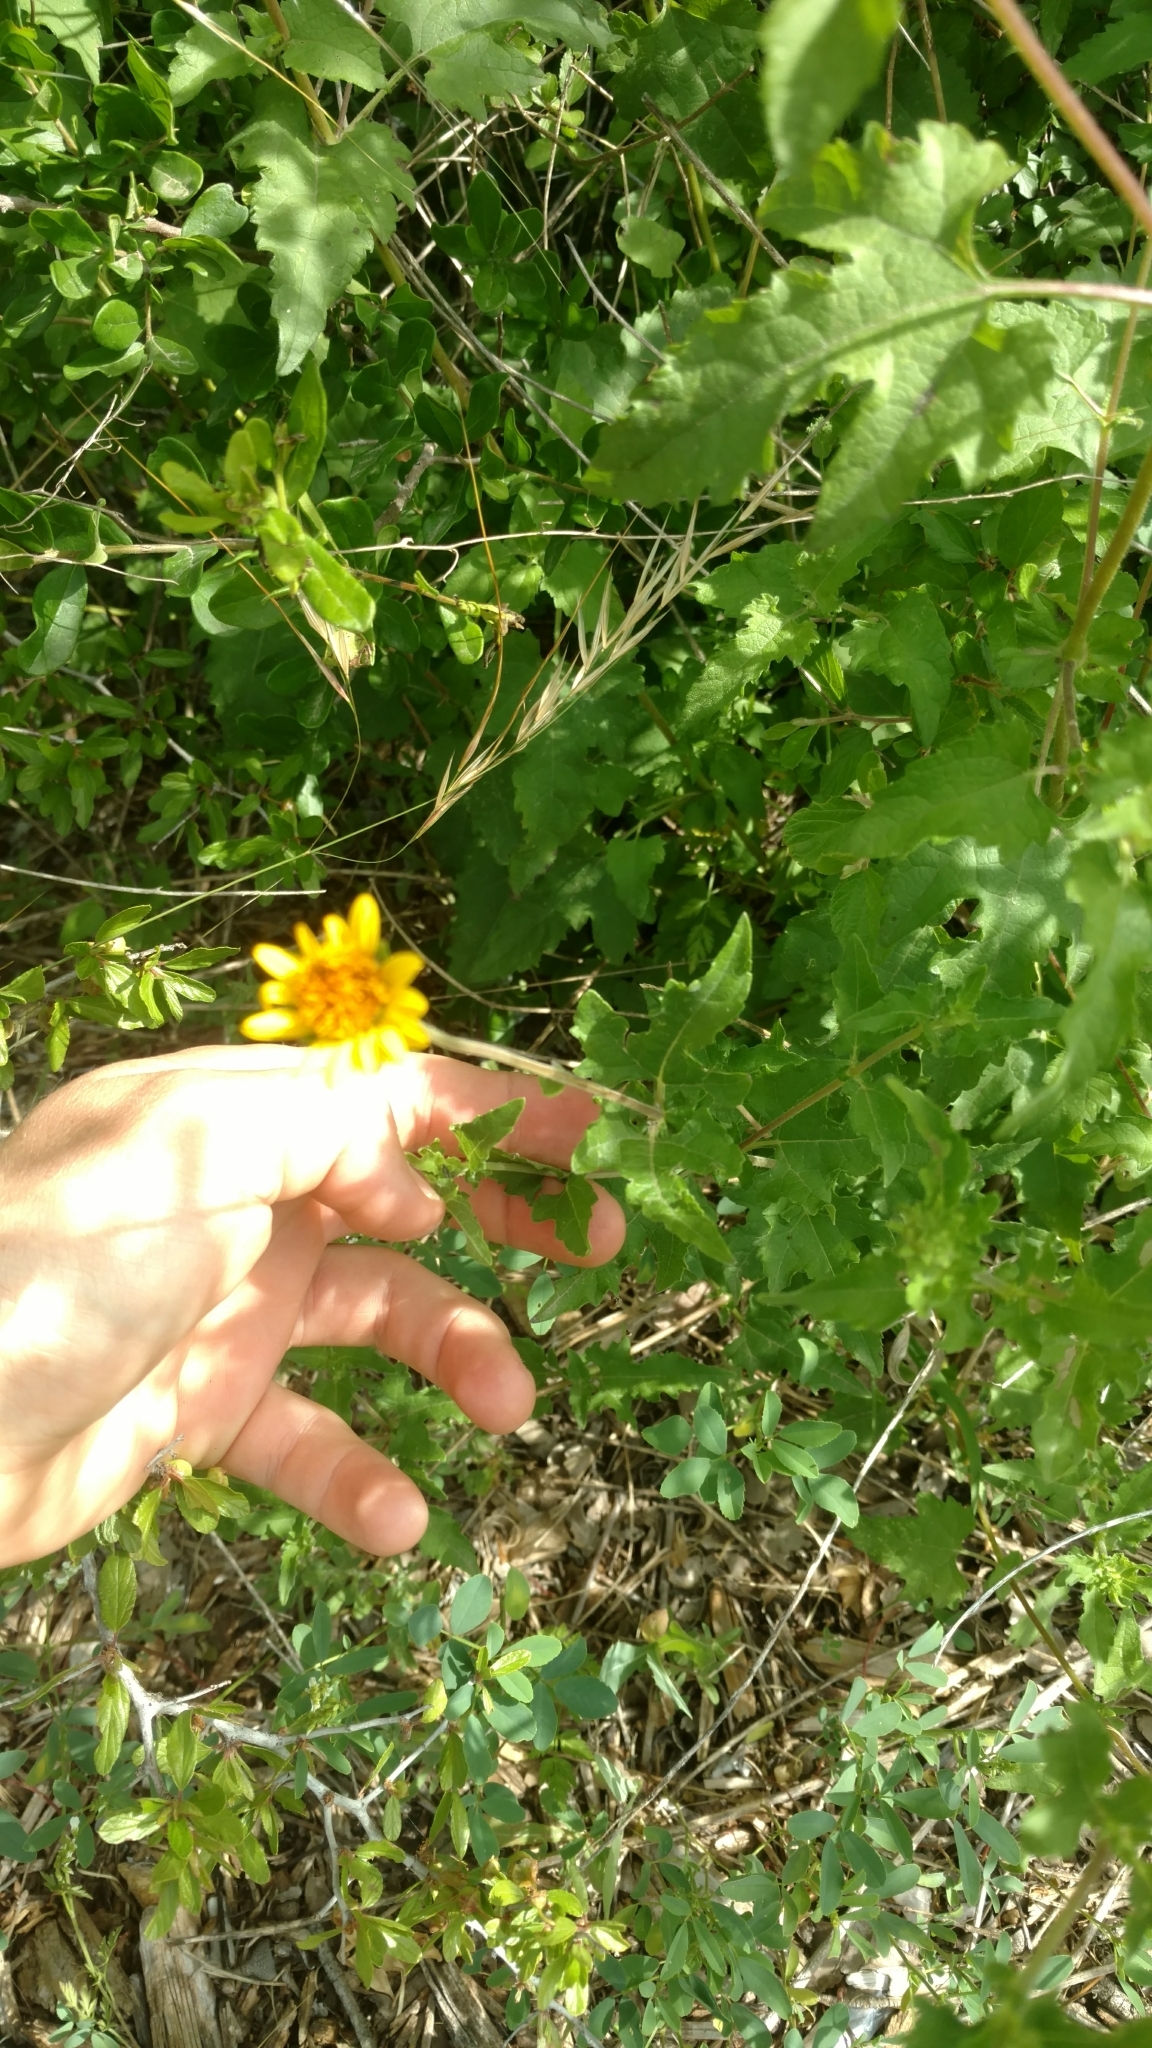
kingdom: Plantae
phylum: Tracheophyta
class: Magnoliopsida
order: Asterales
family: Asteraceae
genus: Simsia
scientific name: Simsia calva
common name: Awnless bush-sunflower
